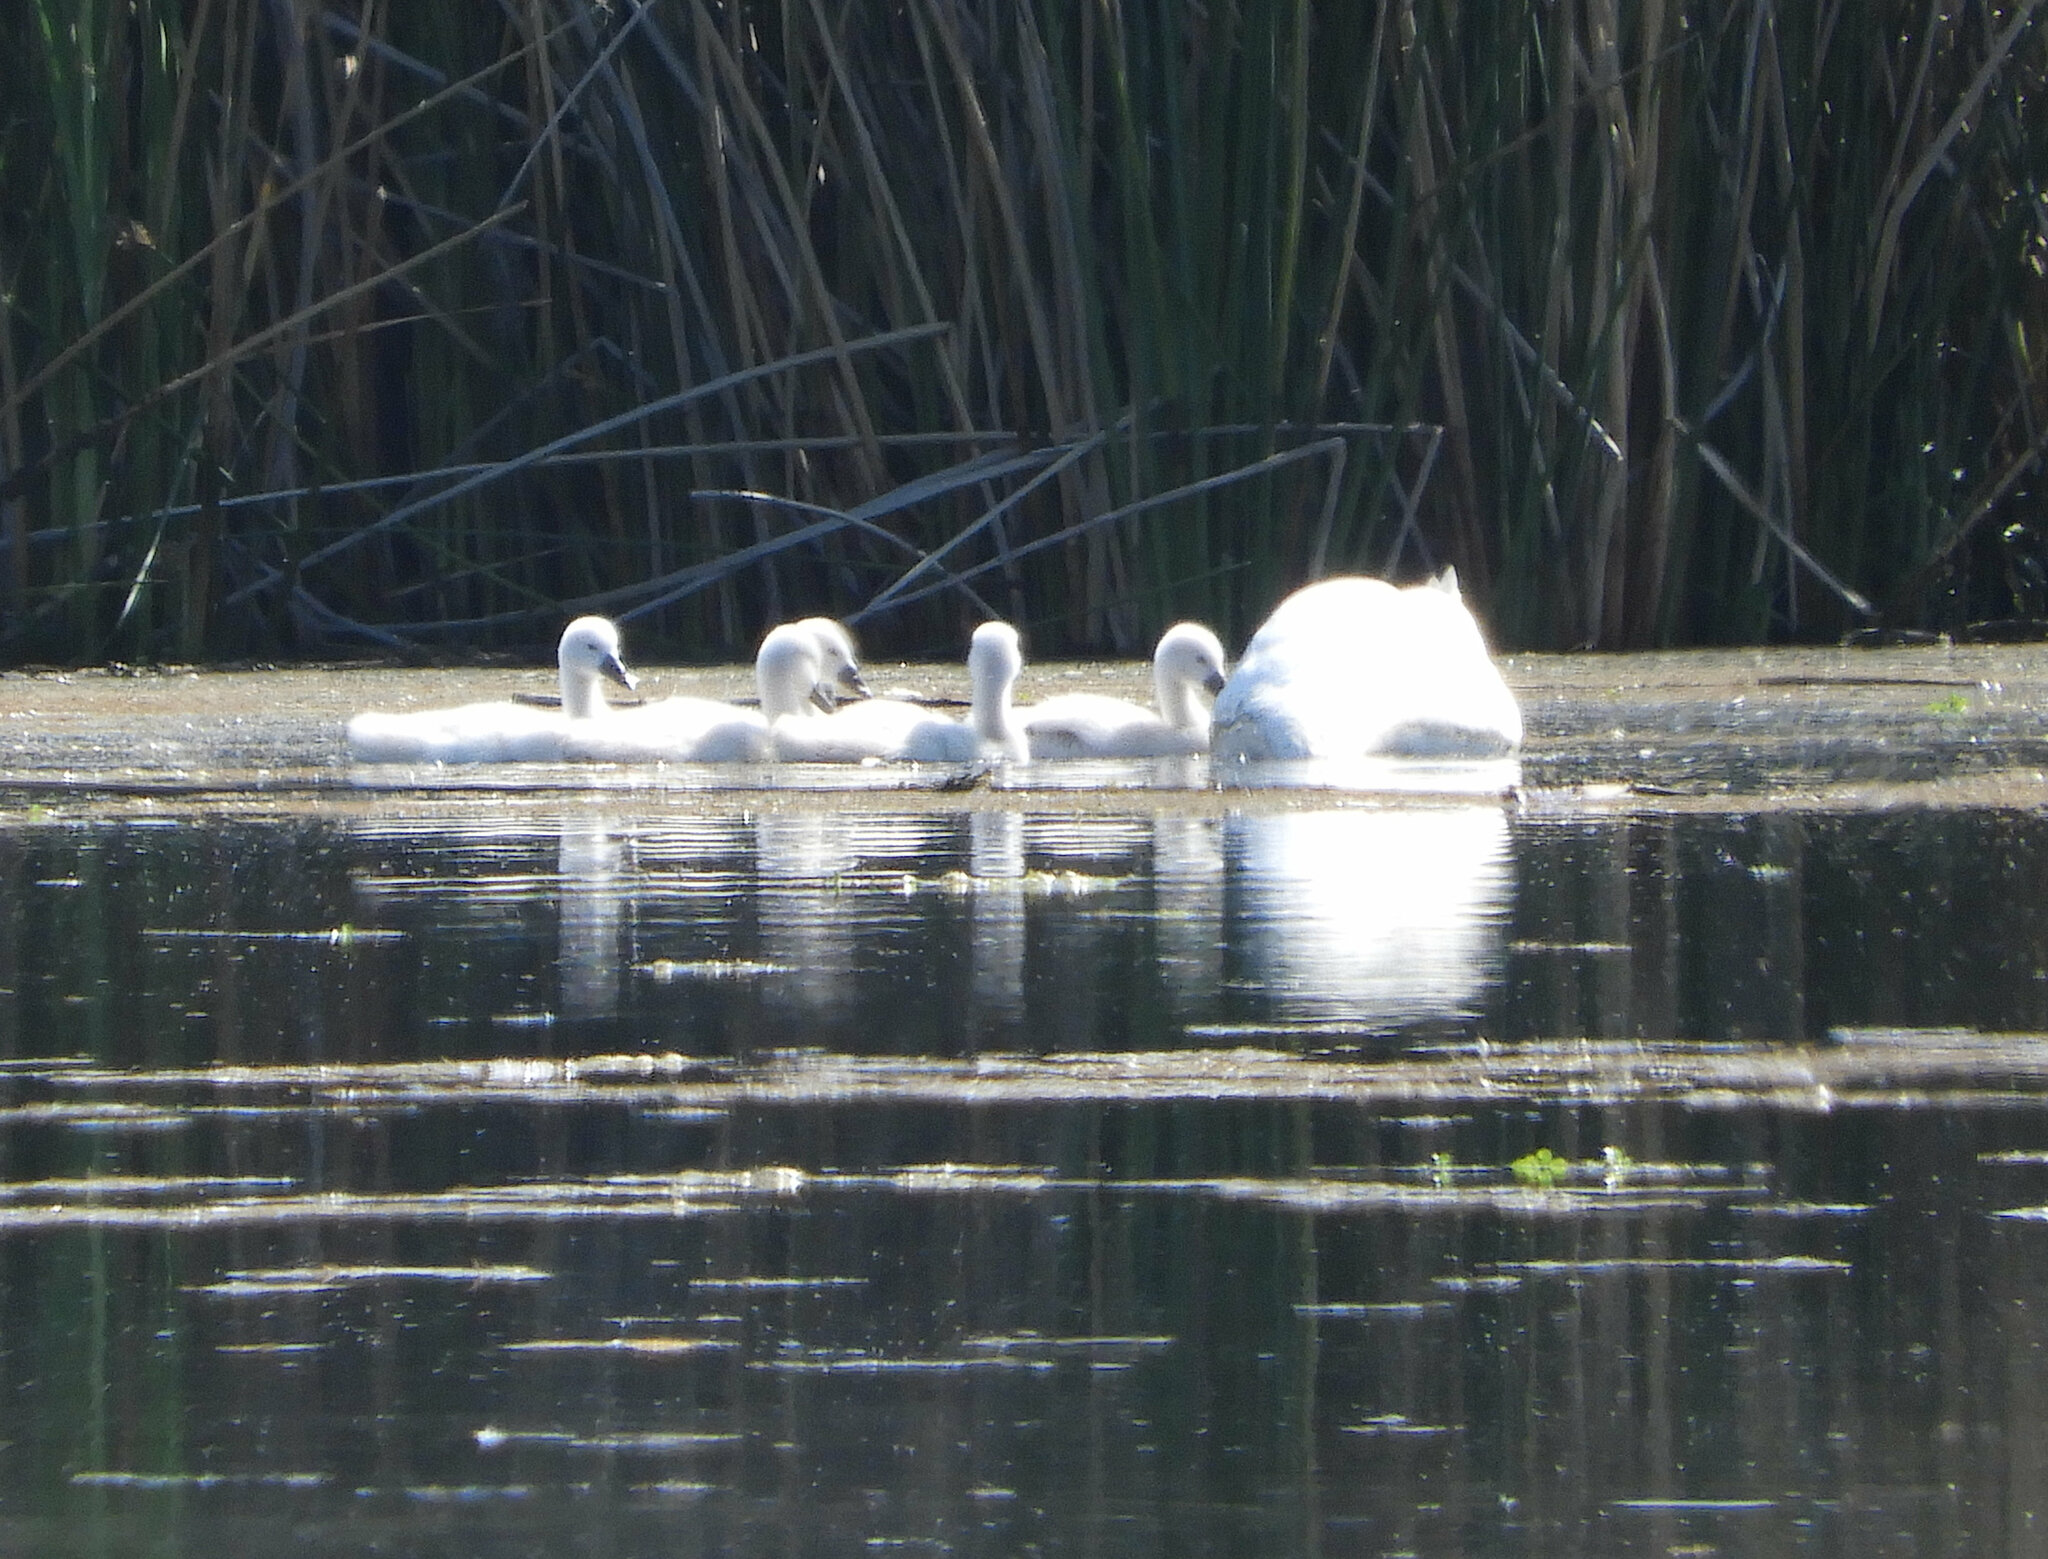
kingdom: Animalia
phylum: Chordata
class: Aves
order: Anseriformes
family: Anatidae
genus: Cygnus
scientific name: Cygnus olor
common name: Mute swan
